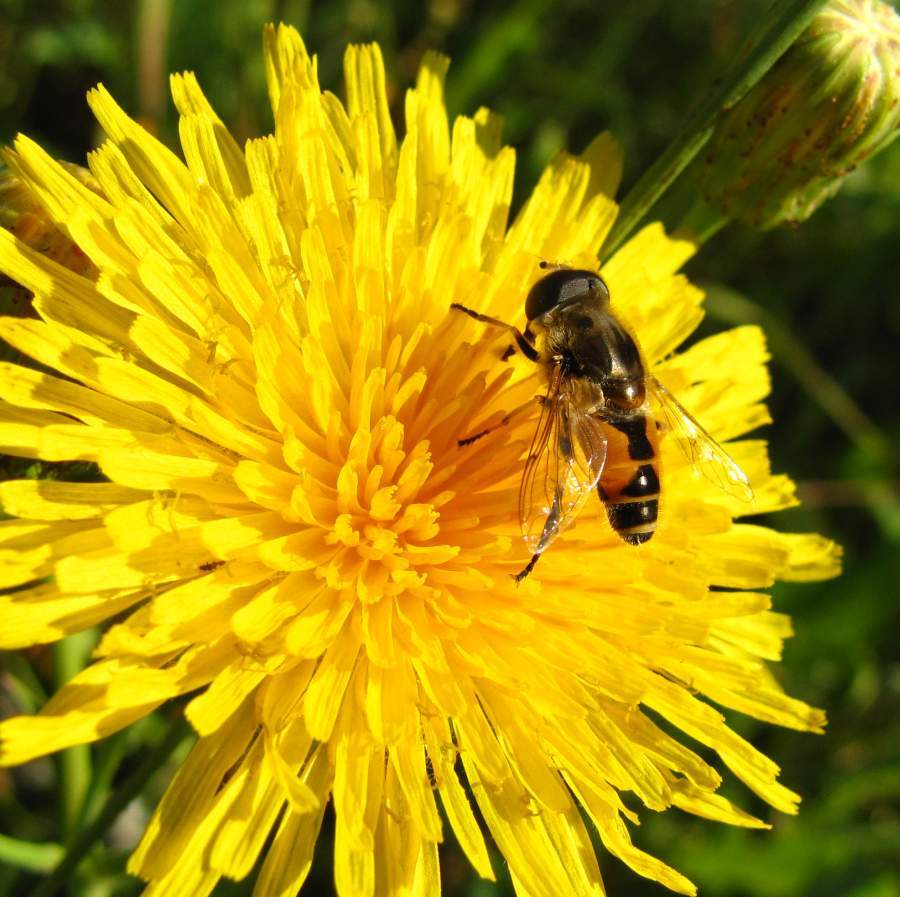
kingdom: Animalia
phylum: Arthropoda
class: Insecta
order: Diptera
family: Syrphidae
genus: Eristalis
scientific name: Eristalis arbustorum
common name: Hover fly
